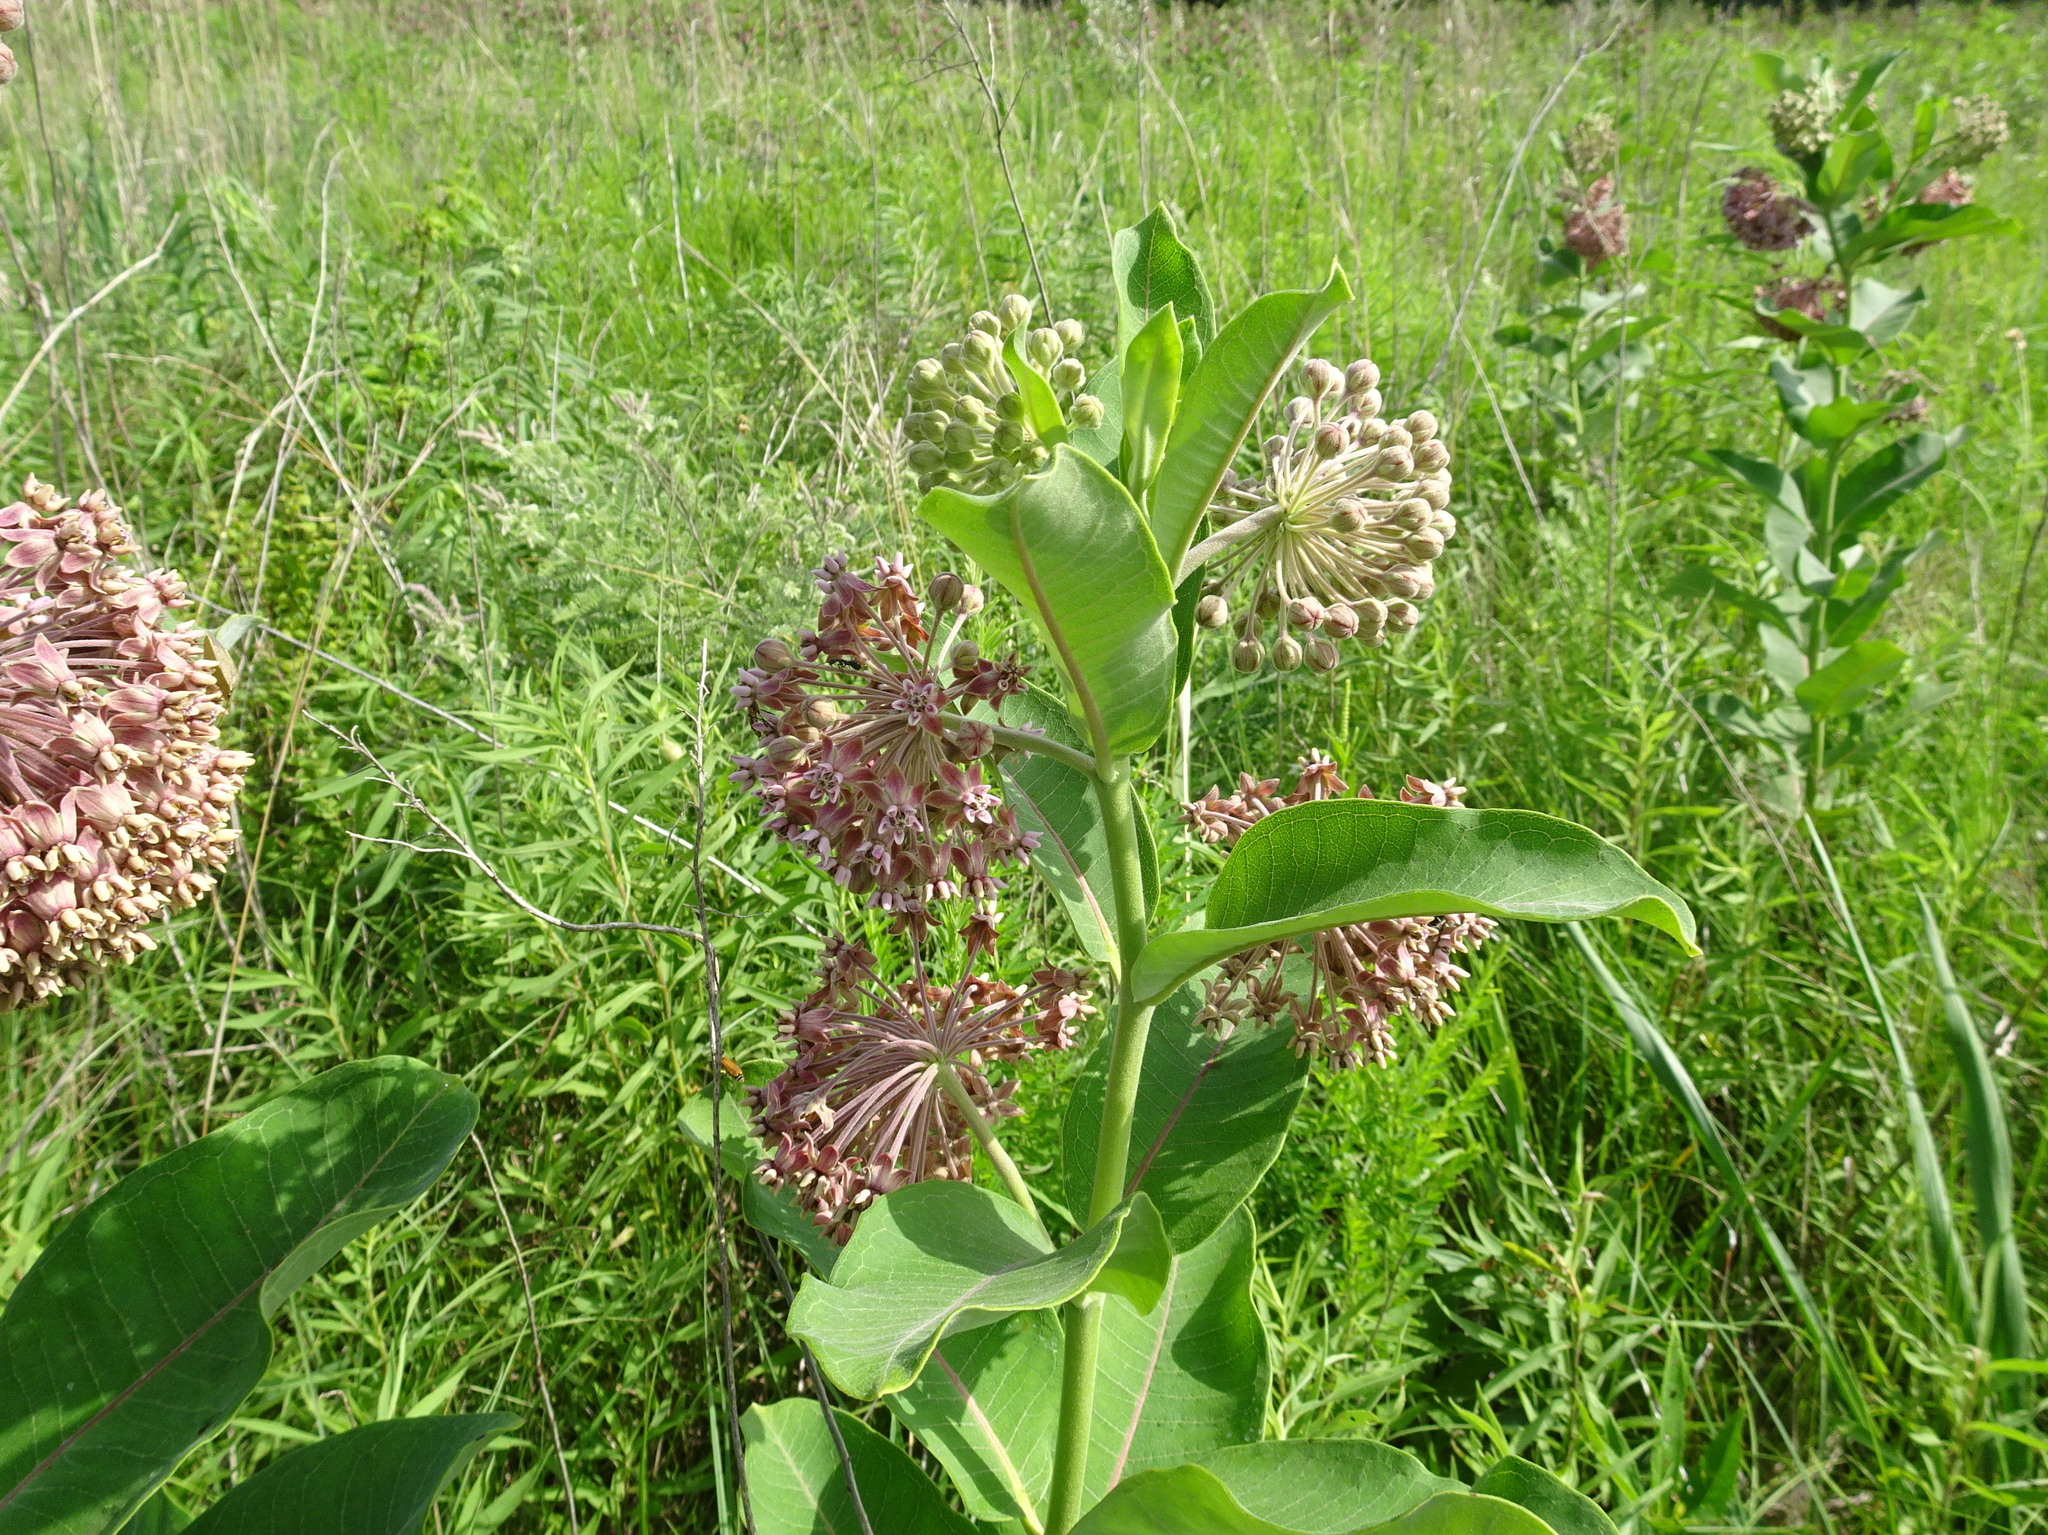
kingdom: Plantae
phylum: Tracheophyta
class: Magnoliopsida
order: Gentianales
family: Apocynaceae
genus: Asclepias
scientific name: Asclepias syriaca
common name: Common milkweed
